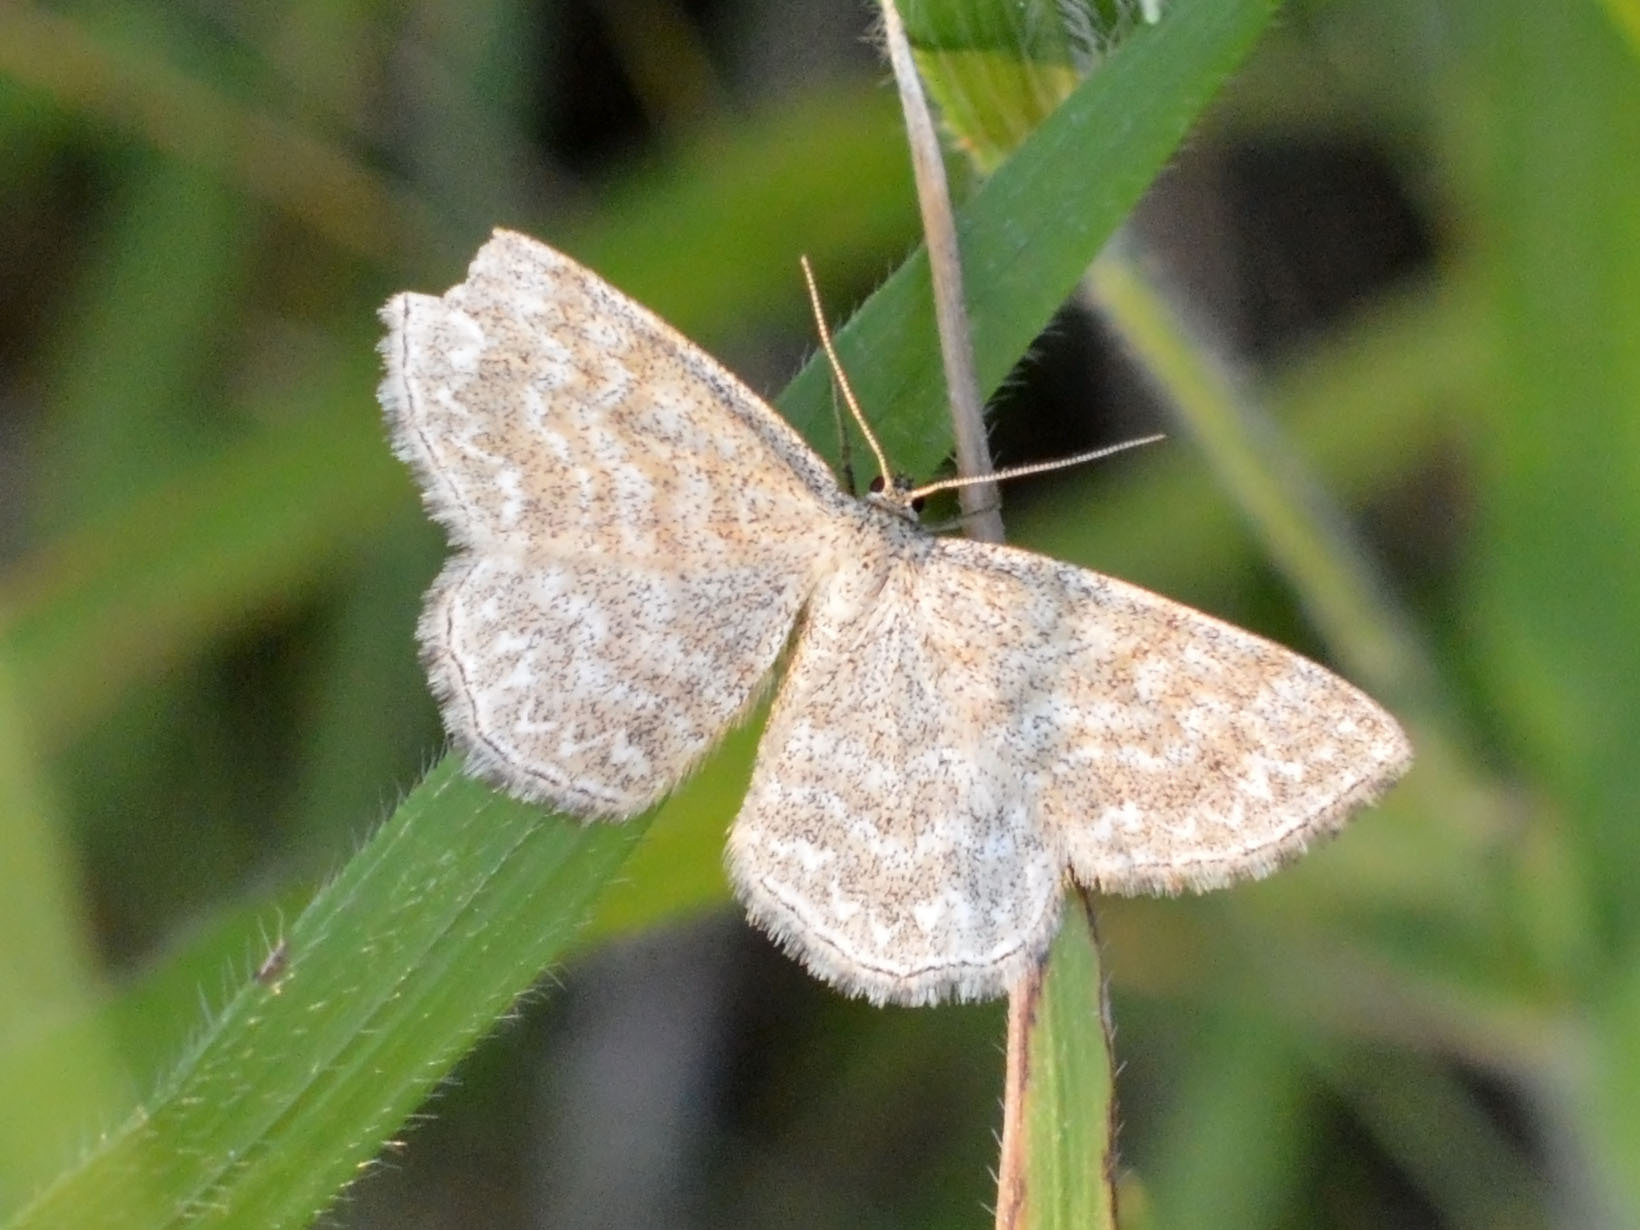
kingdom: Animalia
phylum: Arthropoda
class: Insecta
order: Lepidoptera
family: Geometridae
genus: Scopula
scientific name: Scopula immorata
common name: Lewes wave
